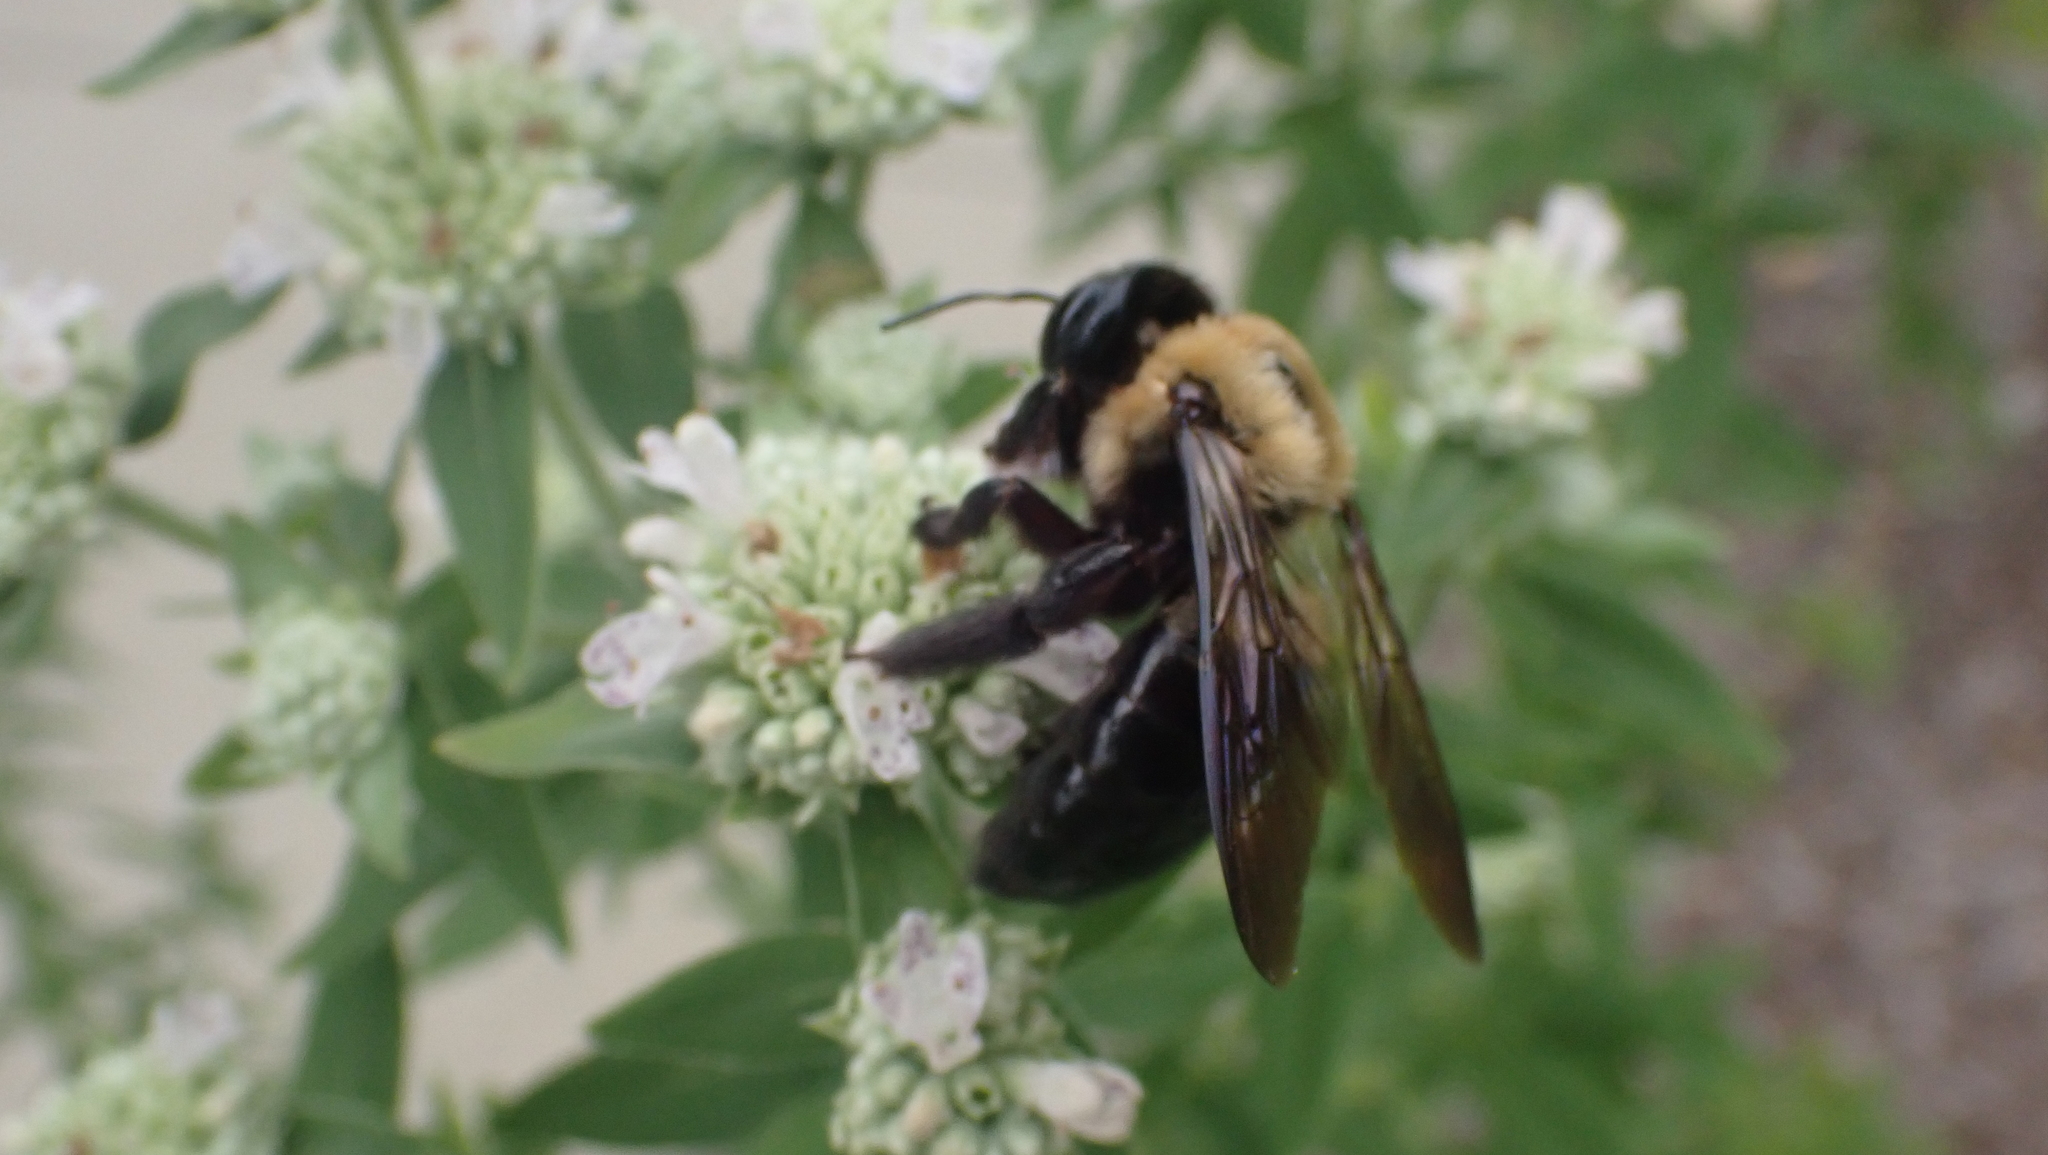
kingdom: Animalia
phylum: Arthropoda
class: Insecta
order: Hymenoptera
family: Apidae
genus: Xylocopa
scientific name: Xylocopa virginica
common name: Carpenter bee
